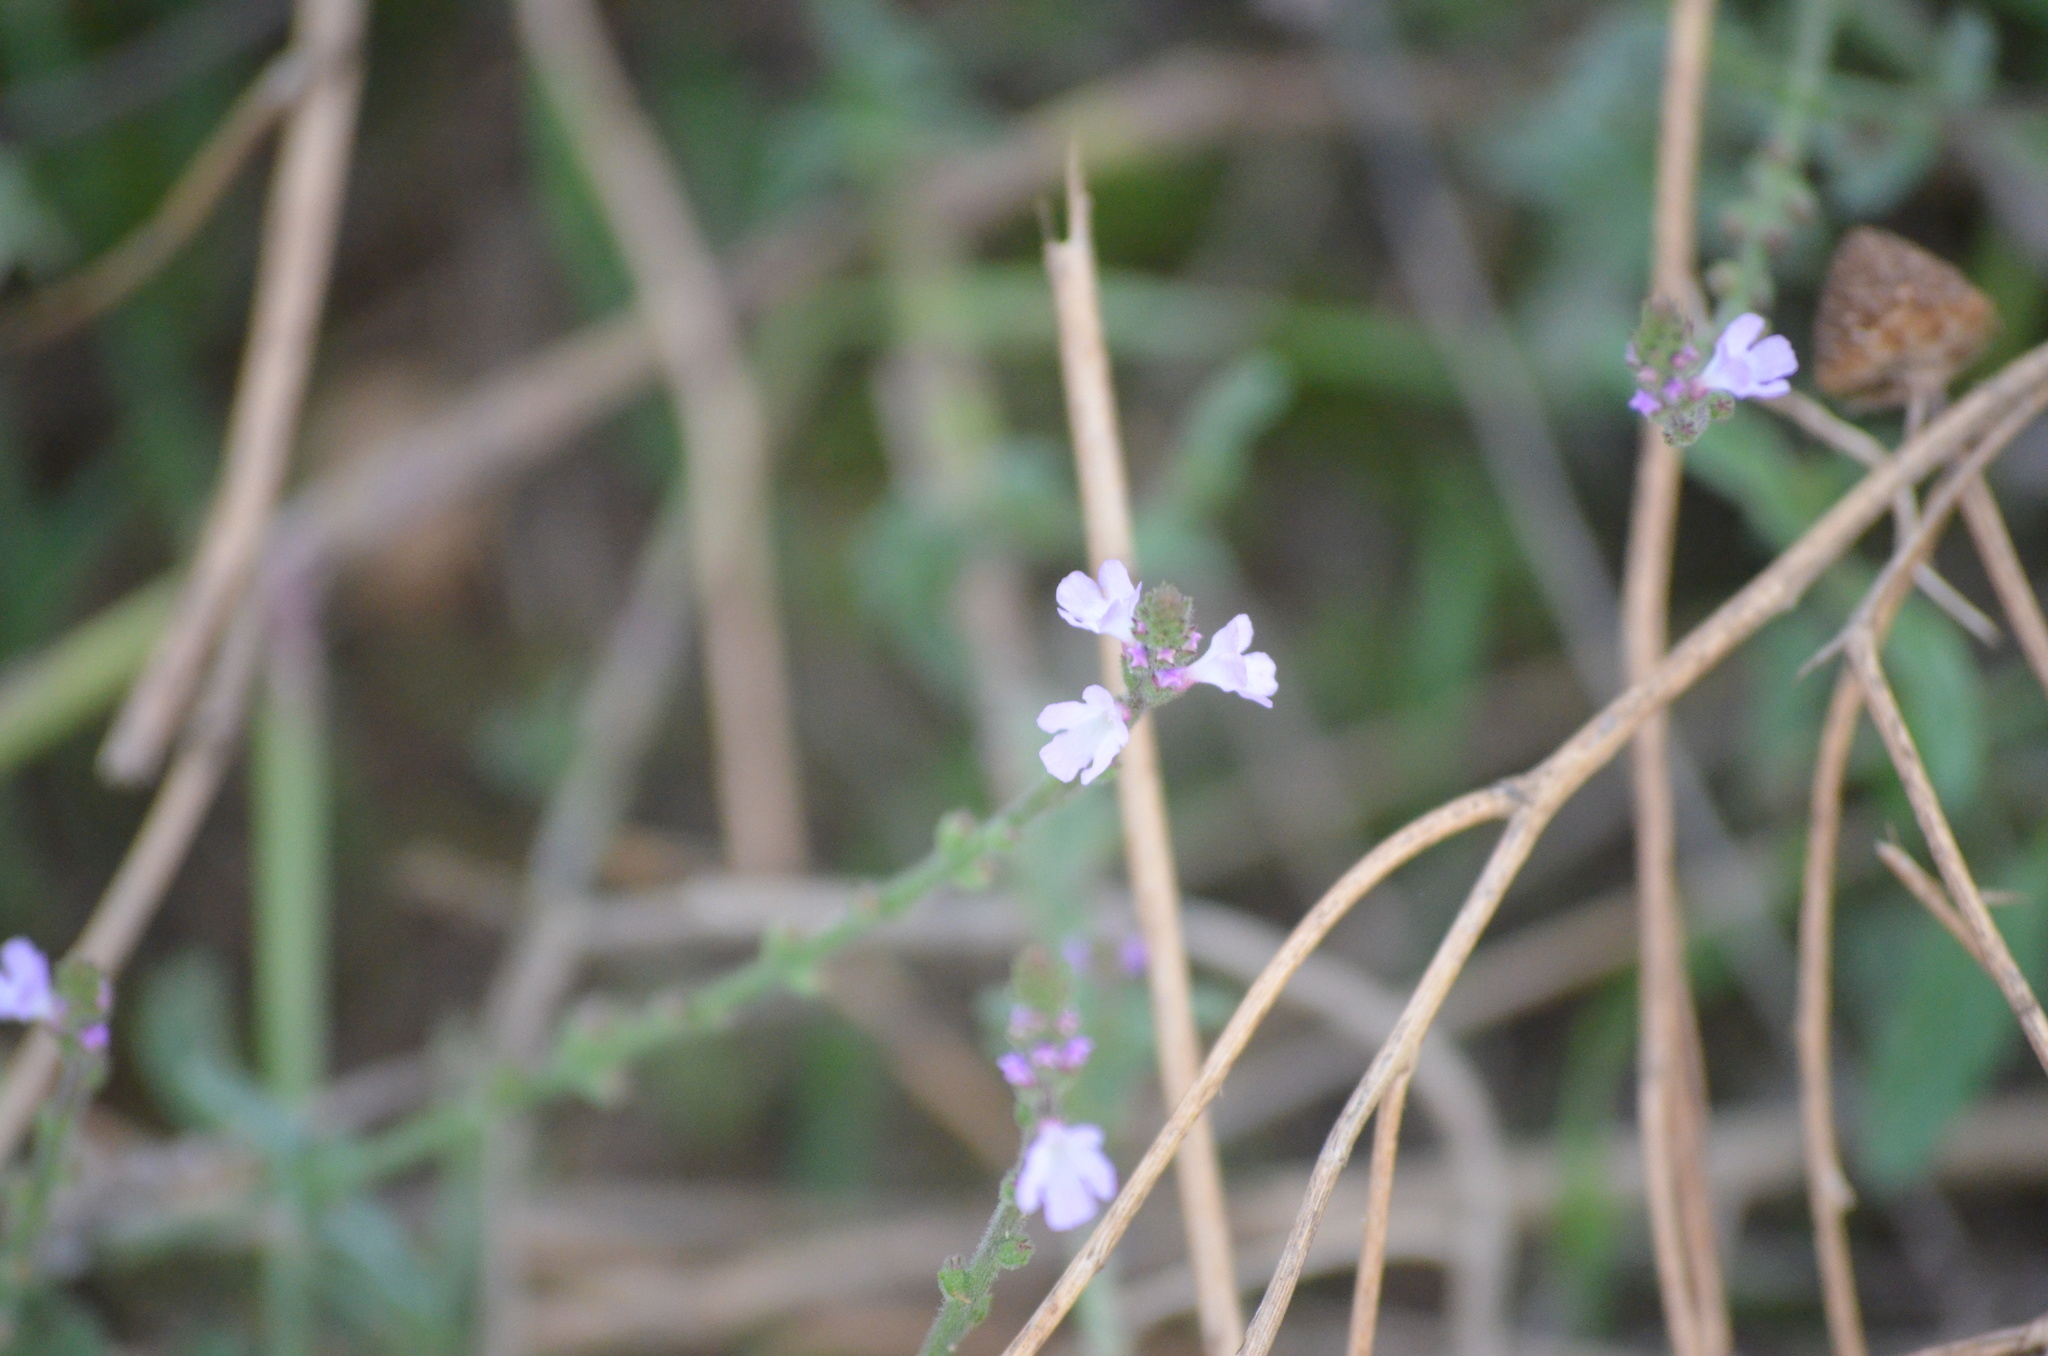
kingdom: Plantae
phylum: Tracheophyta
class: Magnoliopsida
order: Lamiales
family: Verbenaceae
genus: Verbena
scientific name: Verbena officinalis
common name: Vervain
